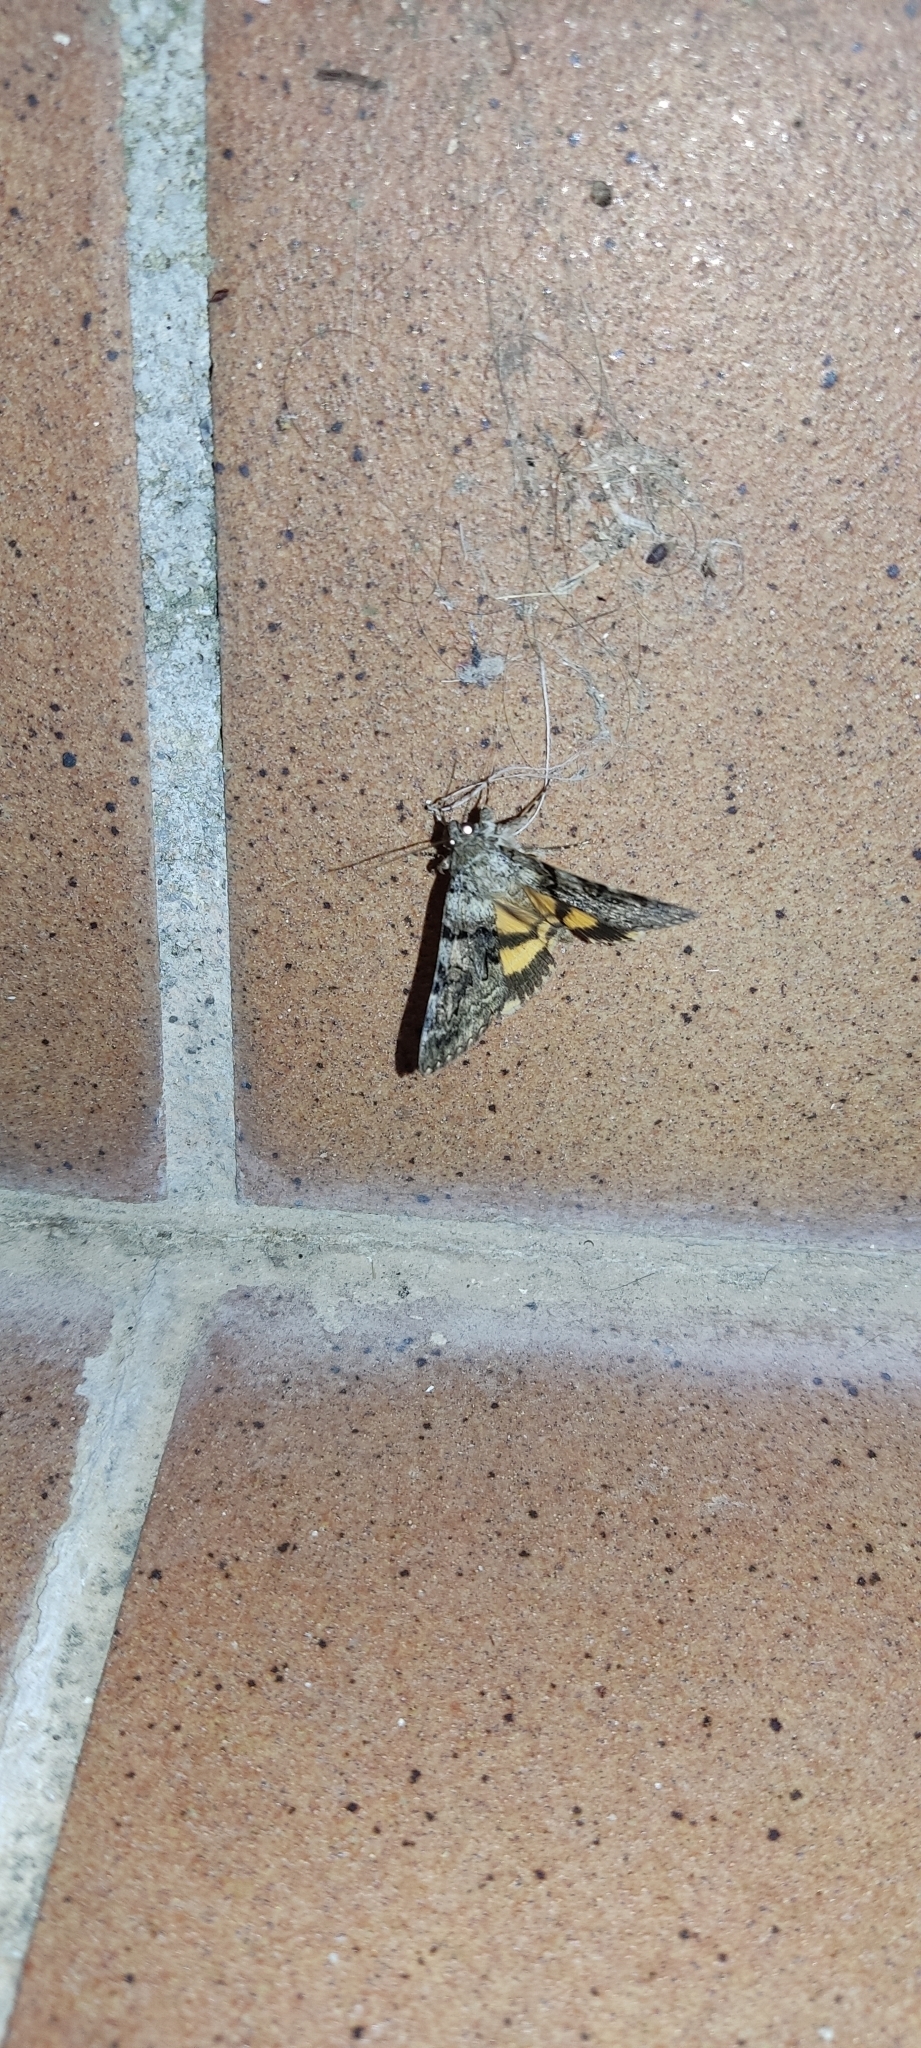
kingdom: Animalia
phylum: Arthropoda
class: Insecta
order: Lepidoptera
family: Erebidae
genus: Catocala
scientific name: Catocala nymphagoga
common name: Oak yellow underwing
